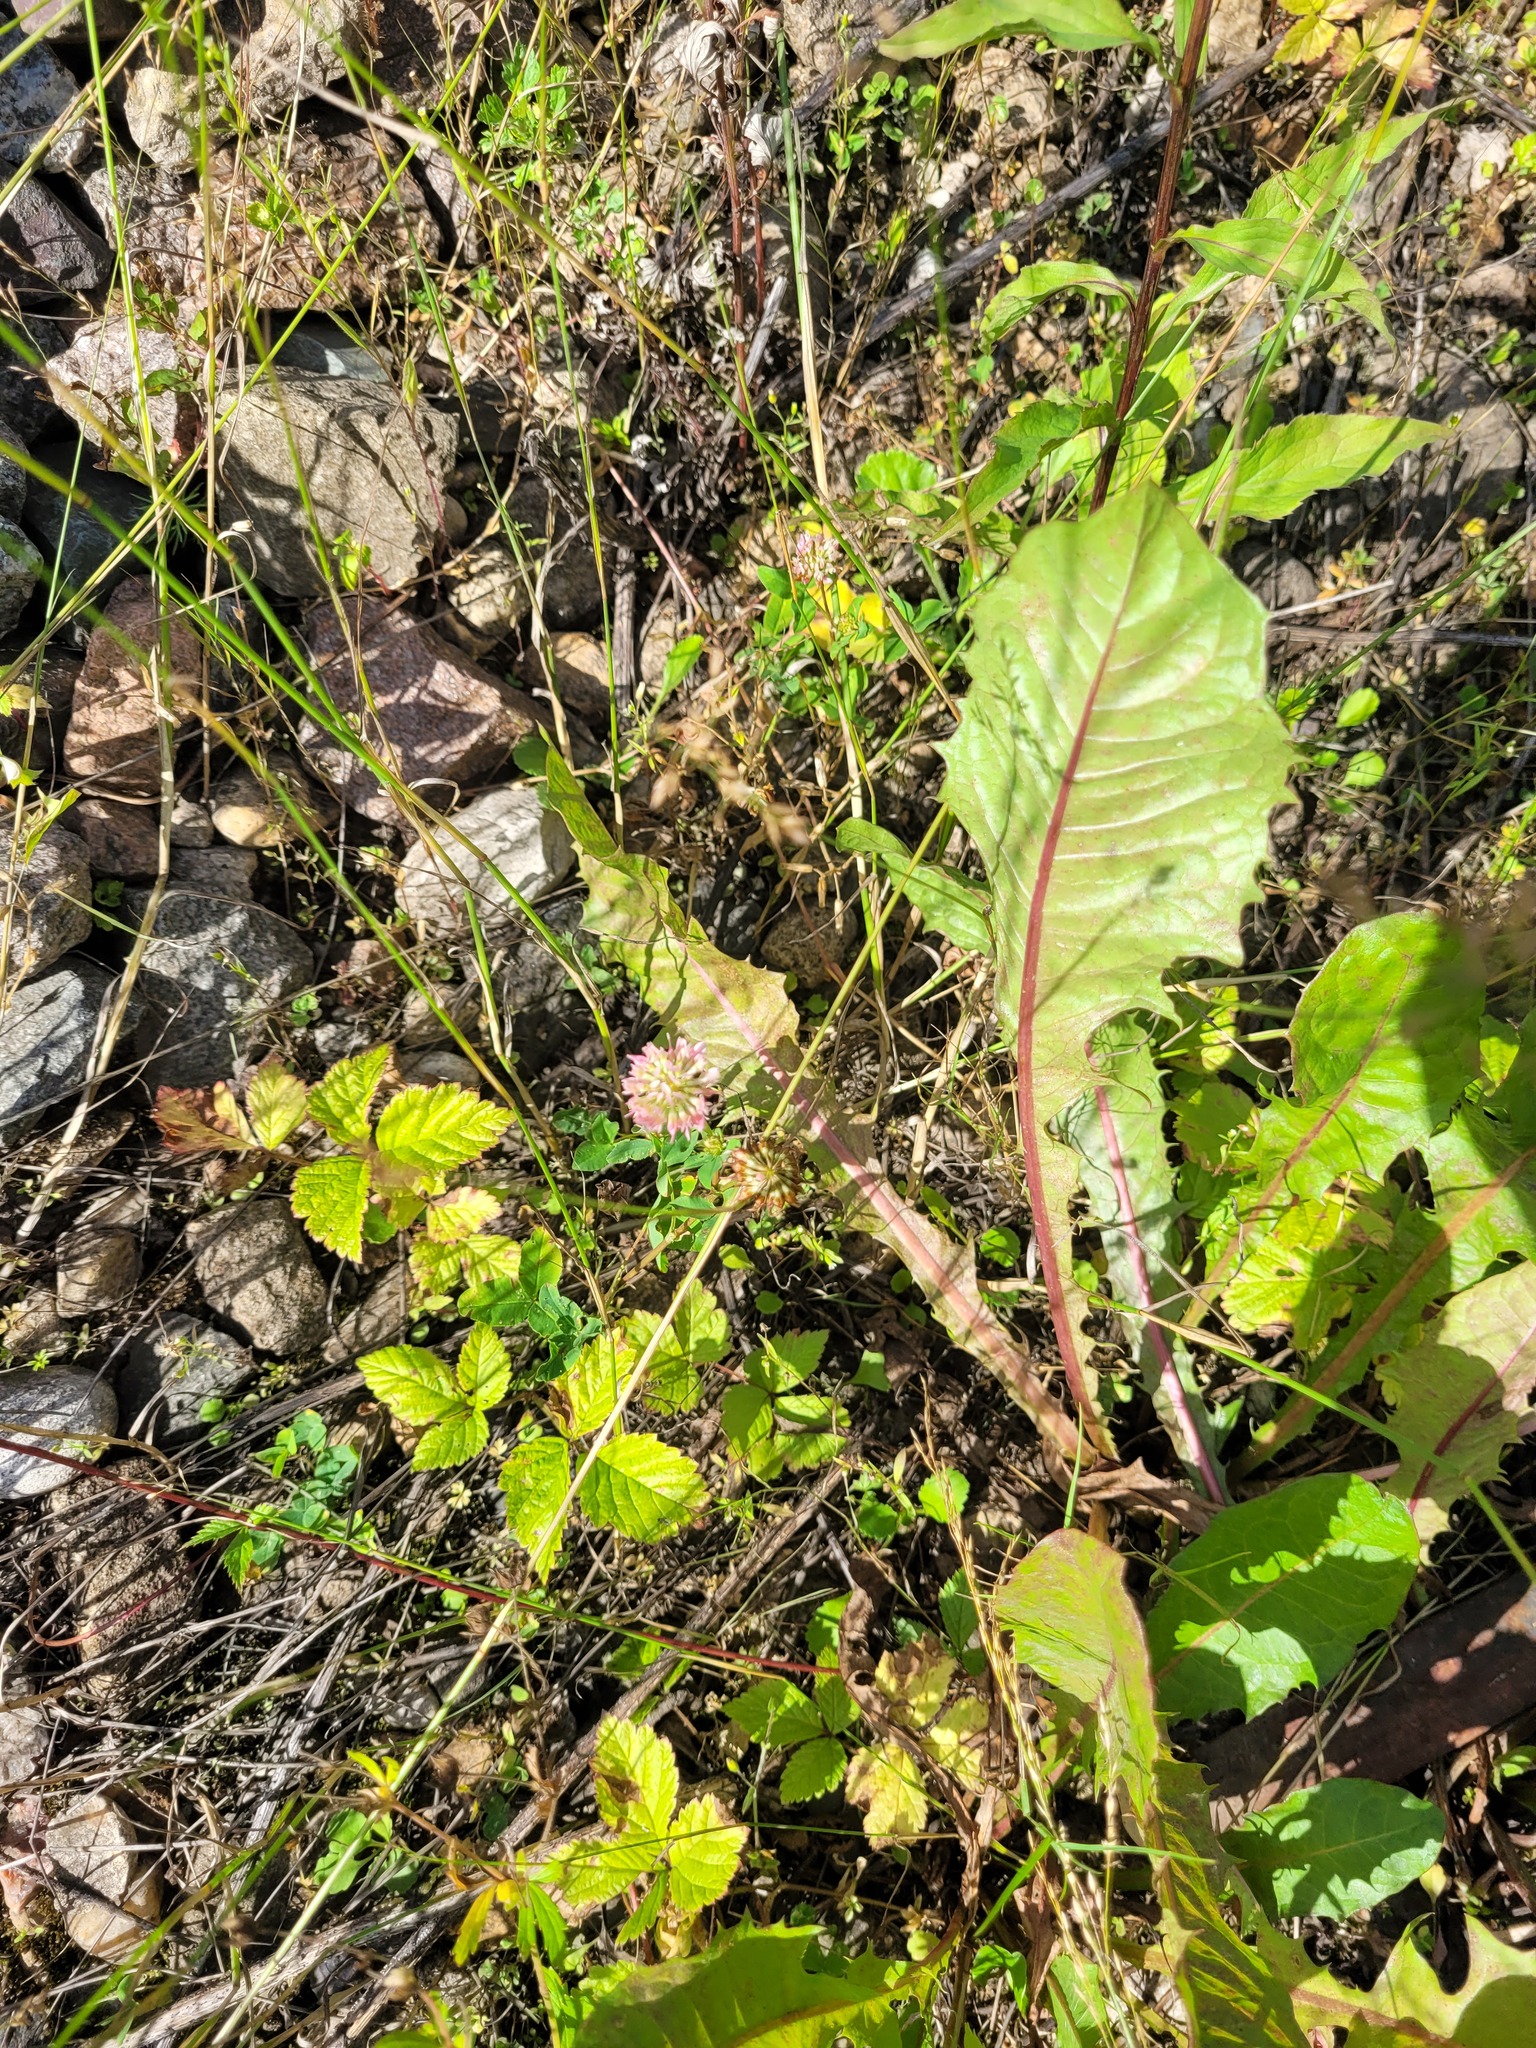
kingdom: Plantae
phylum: Tracheophyta
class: Magnoliopsida
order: Fabales
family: Fabaceae
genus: Trifolium
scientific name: Trifolium hybridum
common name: Alsike clover
